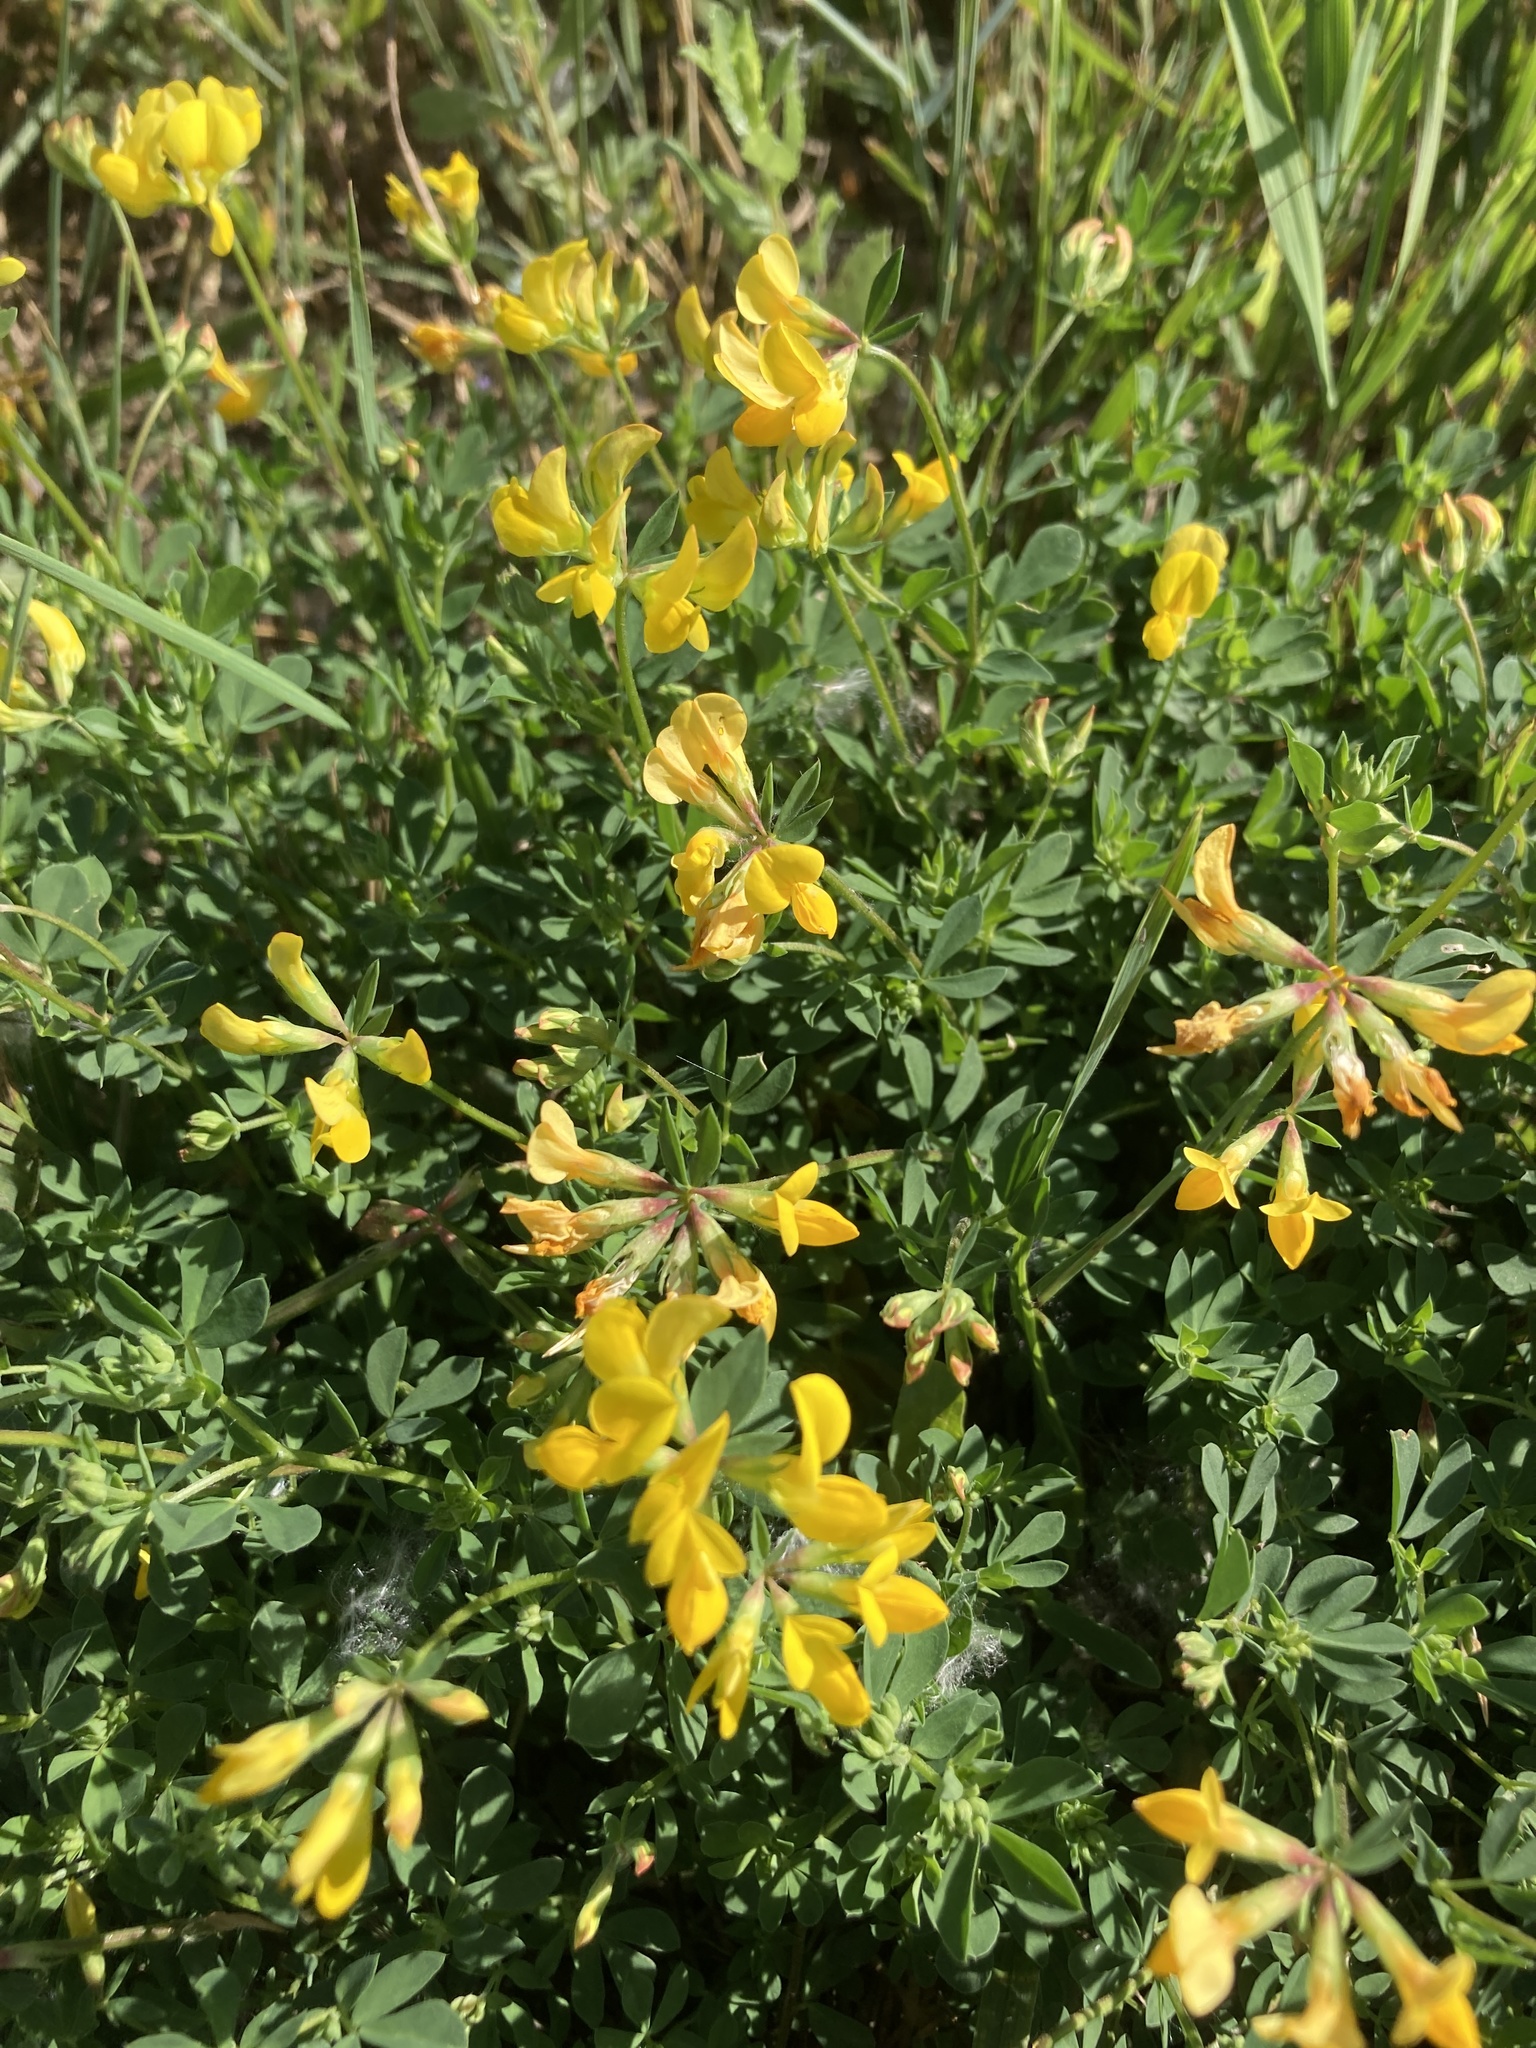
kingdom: Plantae
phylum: Tracheophyta
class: Magnoliopsida
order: Fabales
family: Fabaceae
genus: Lotus
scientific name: Lotus corniculatus
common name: Common bird's-foot-trefoil
